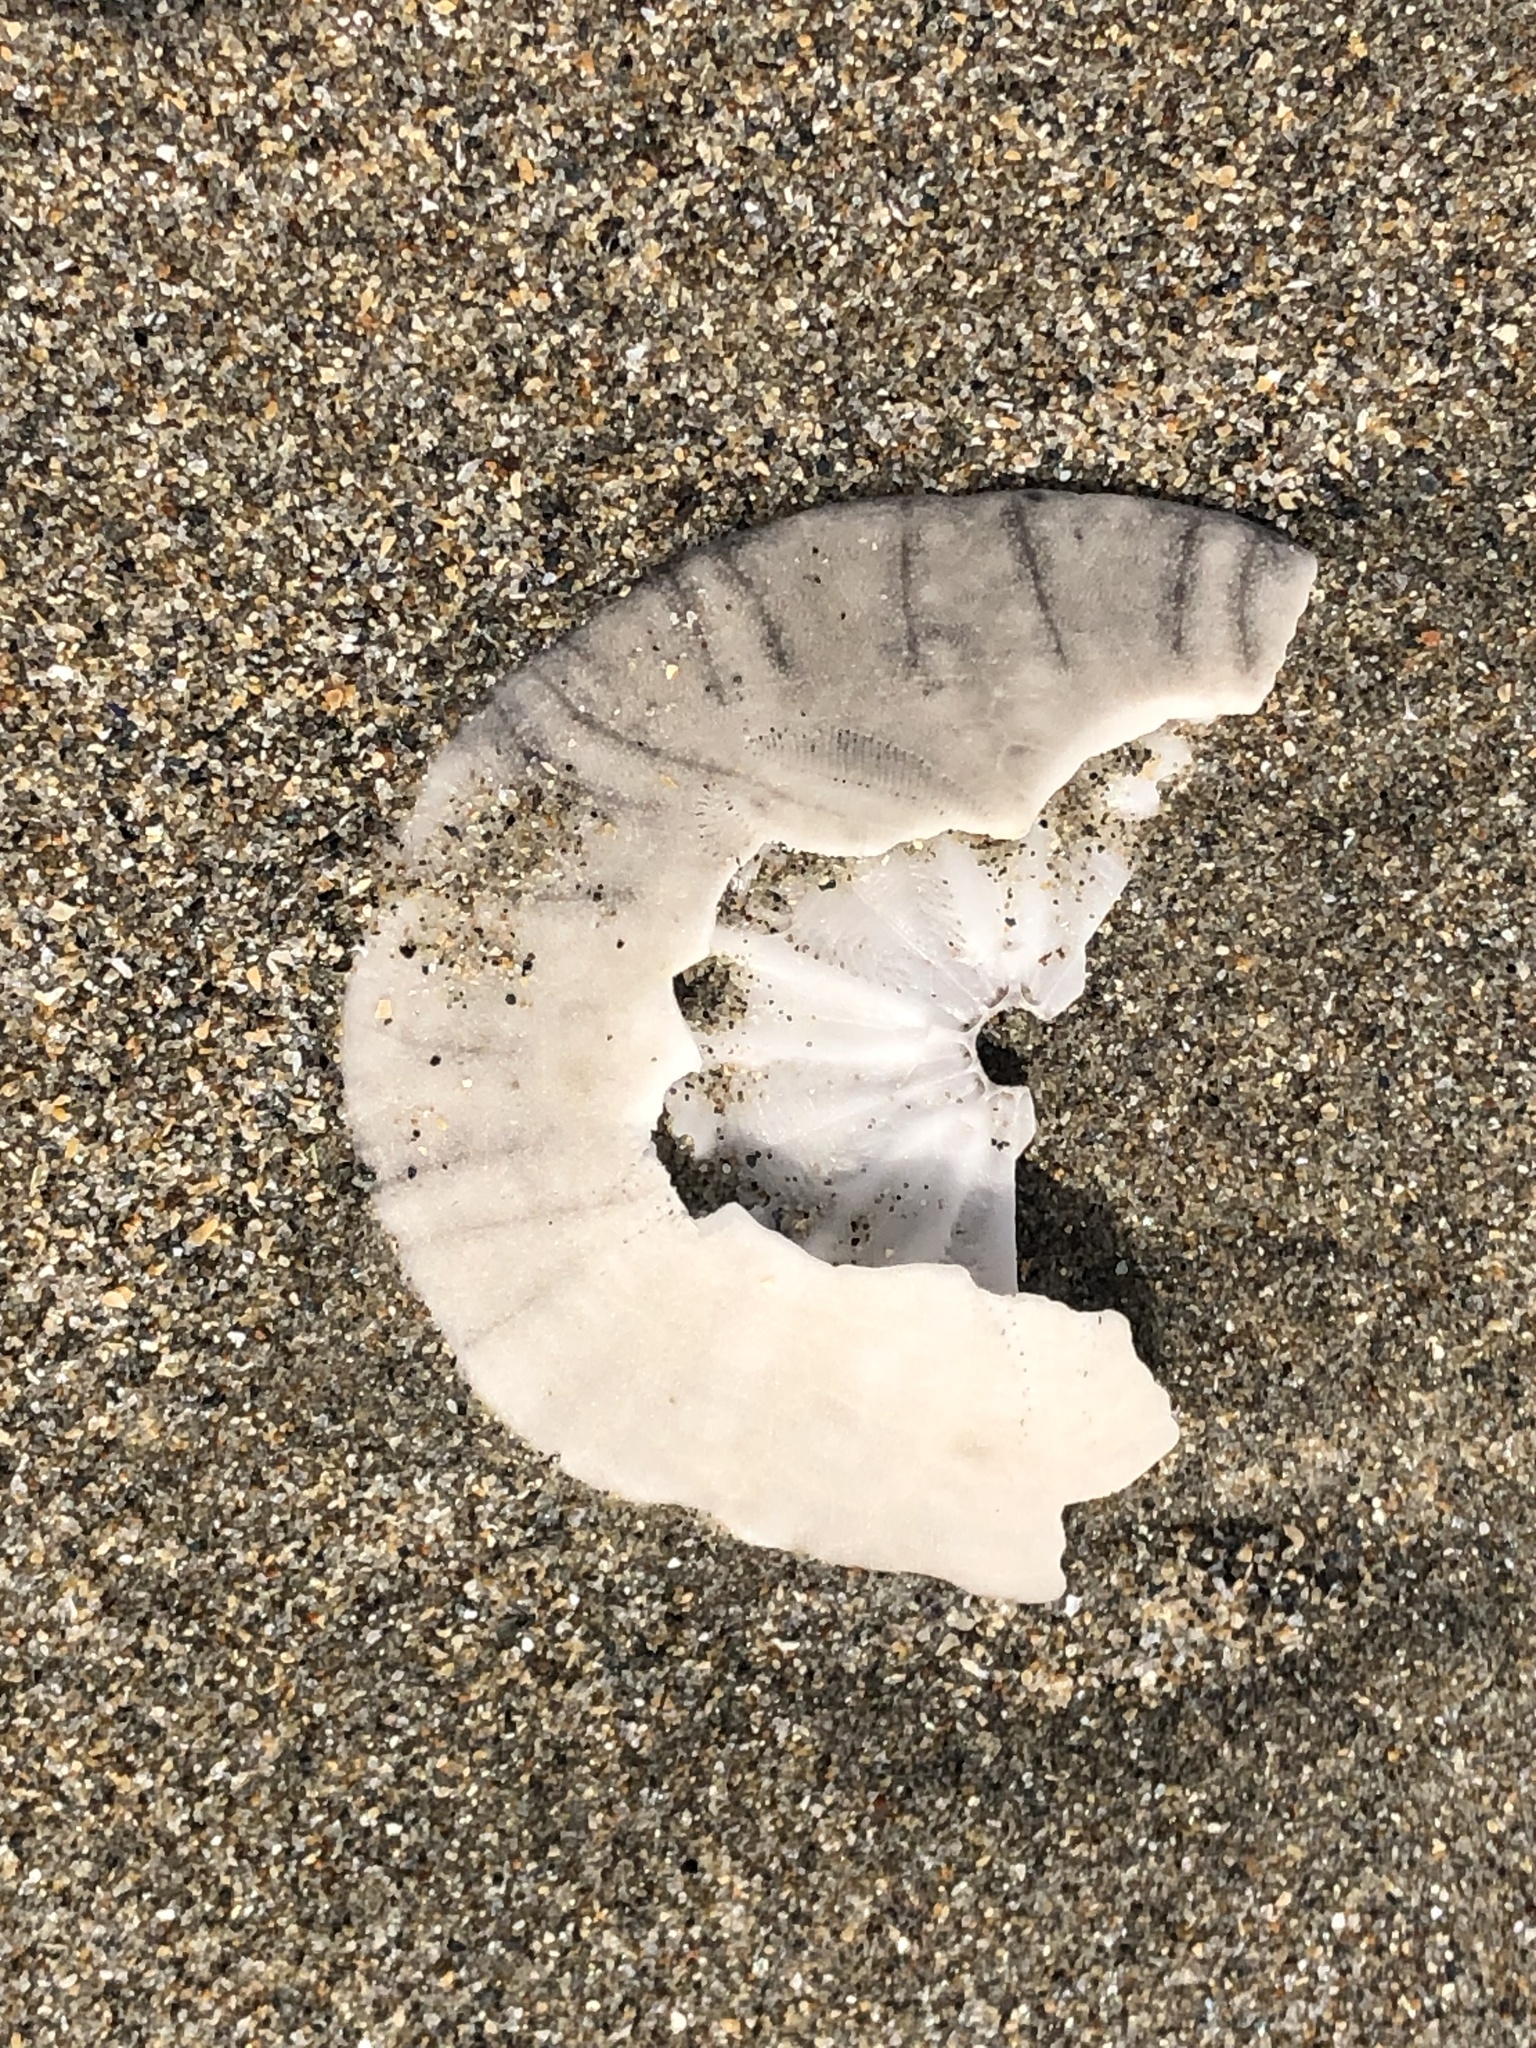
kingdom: Animalia
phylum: Echinodermata
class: Echinoidea
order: Echinolampadacea
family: Dendrasteridae
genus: Dendraster
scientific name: Dendraster excentricus
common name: Eccentric sand dollar sea urchin
